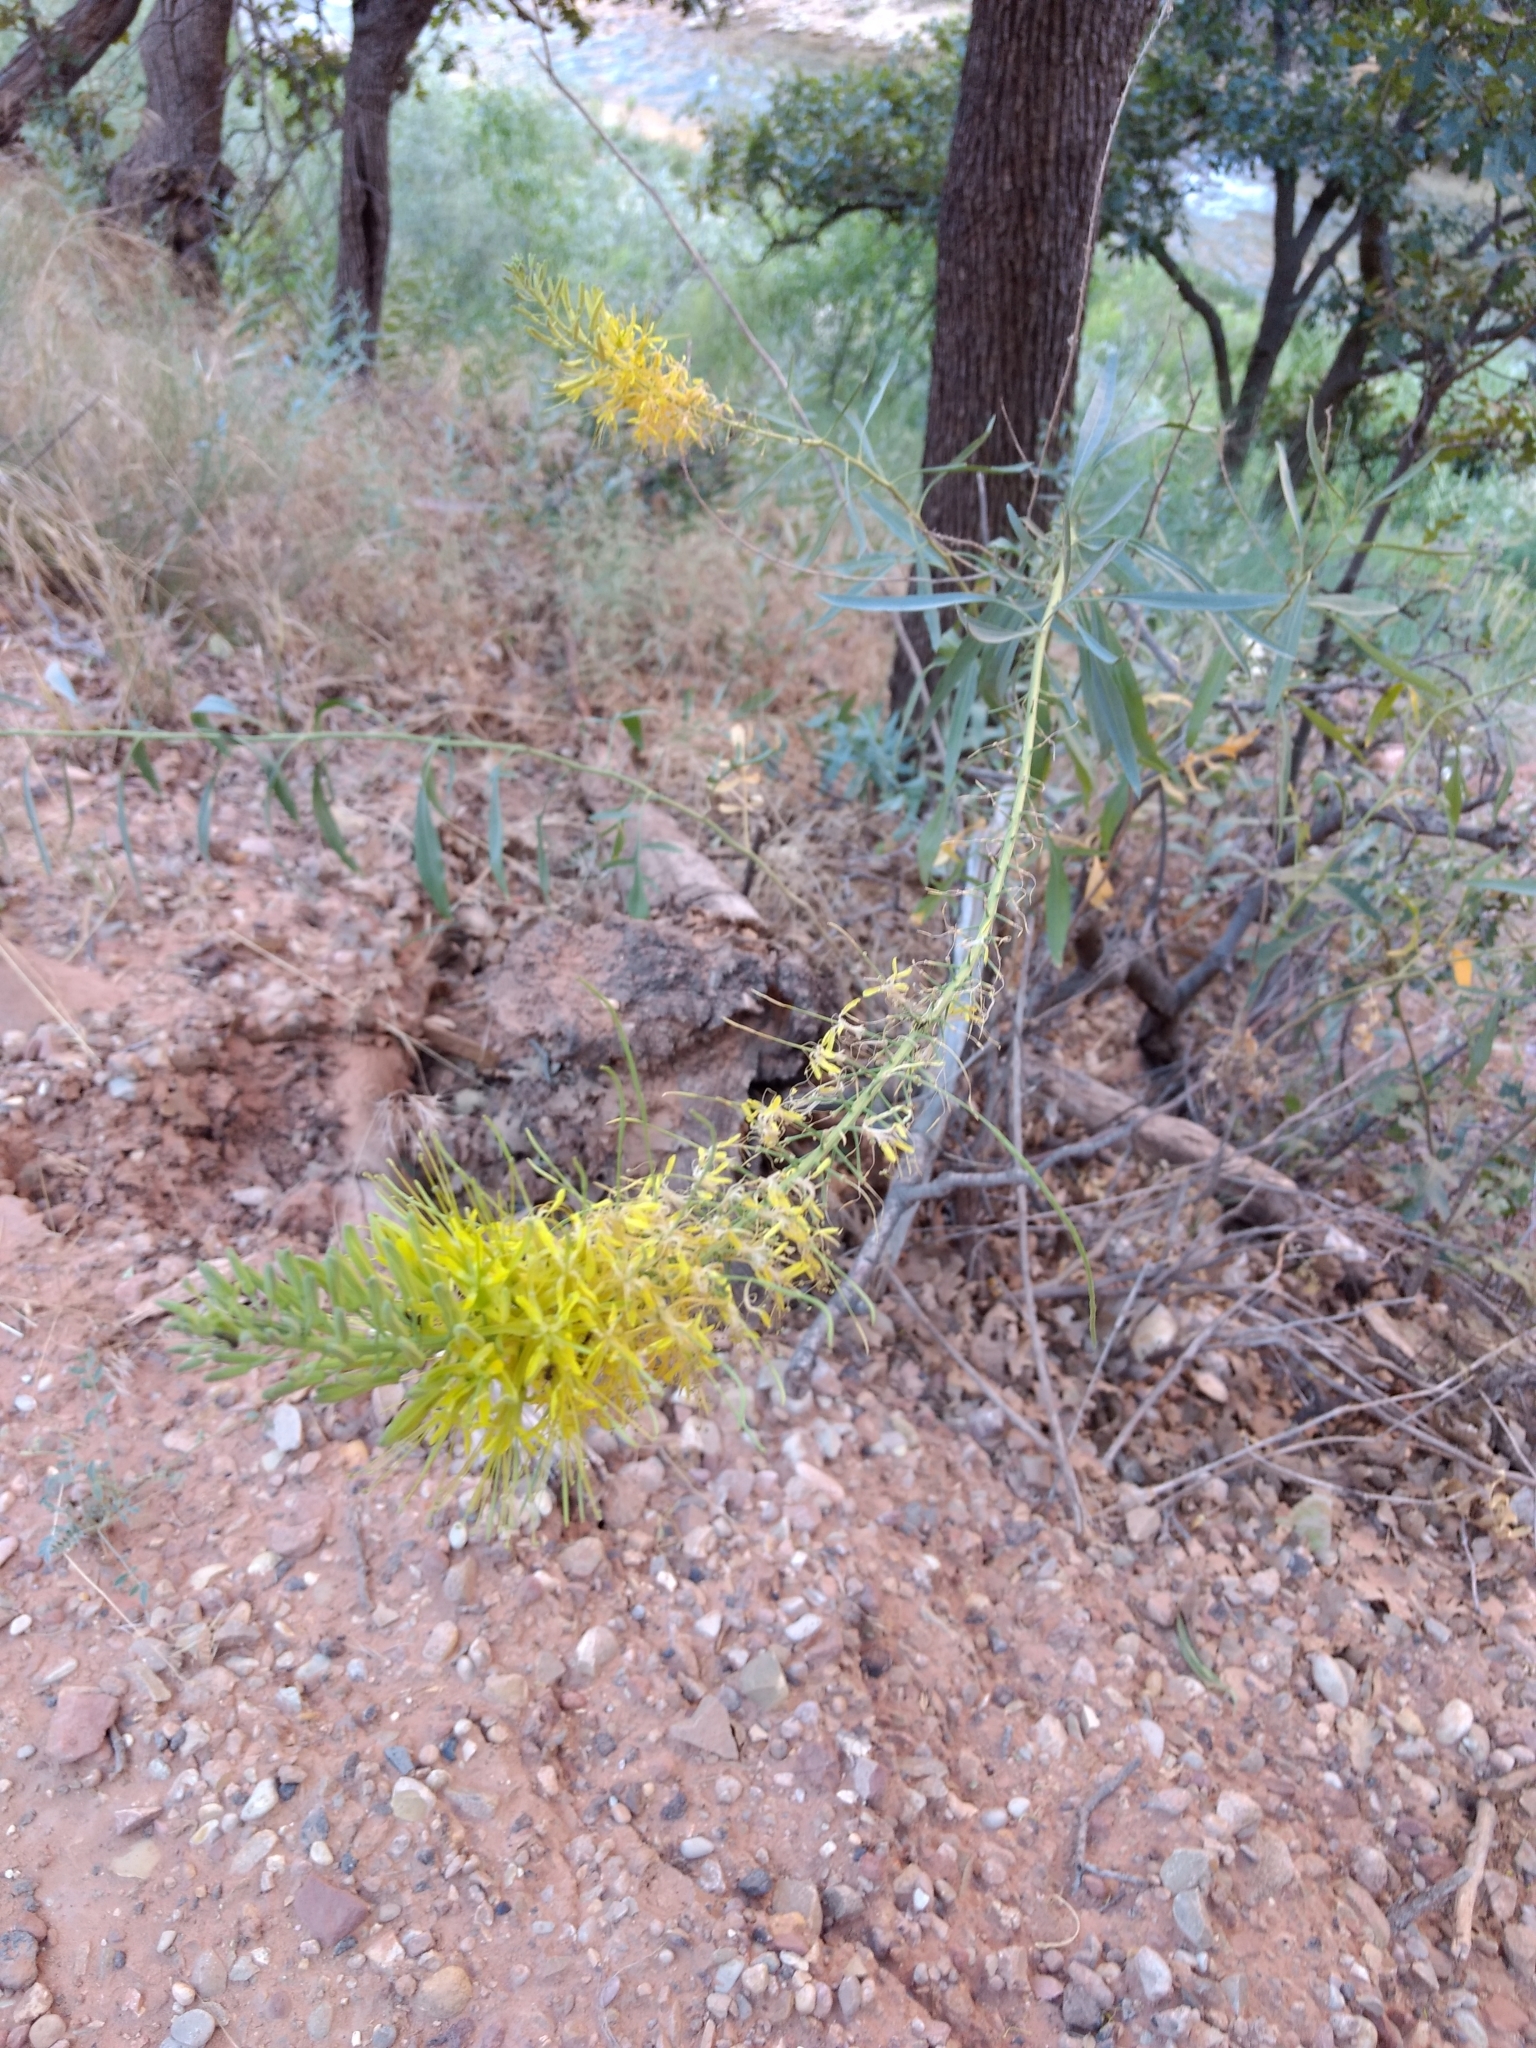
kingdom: Plantae
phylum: Tracheophyta
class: Magnoliopsida
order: Brassicales
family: Brassicaceae
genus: Stanleya
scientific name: Stanleya pinnata
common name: Prince's-plume
